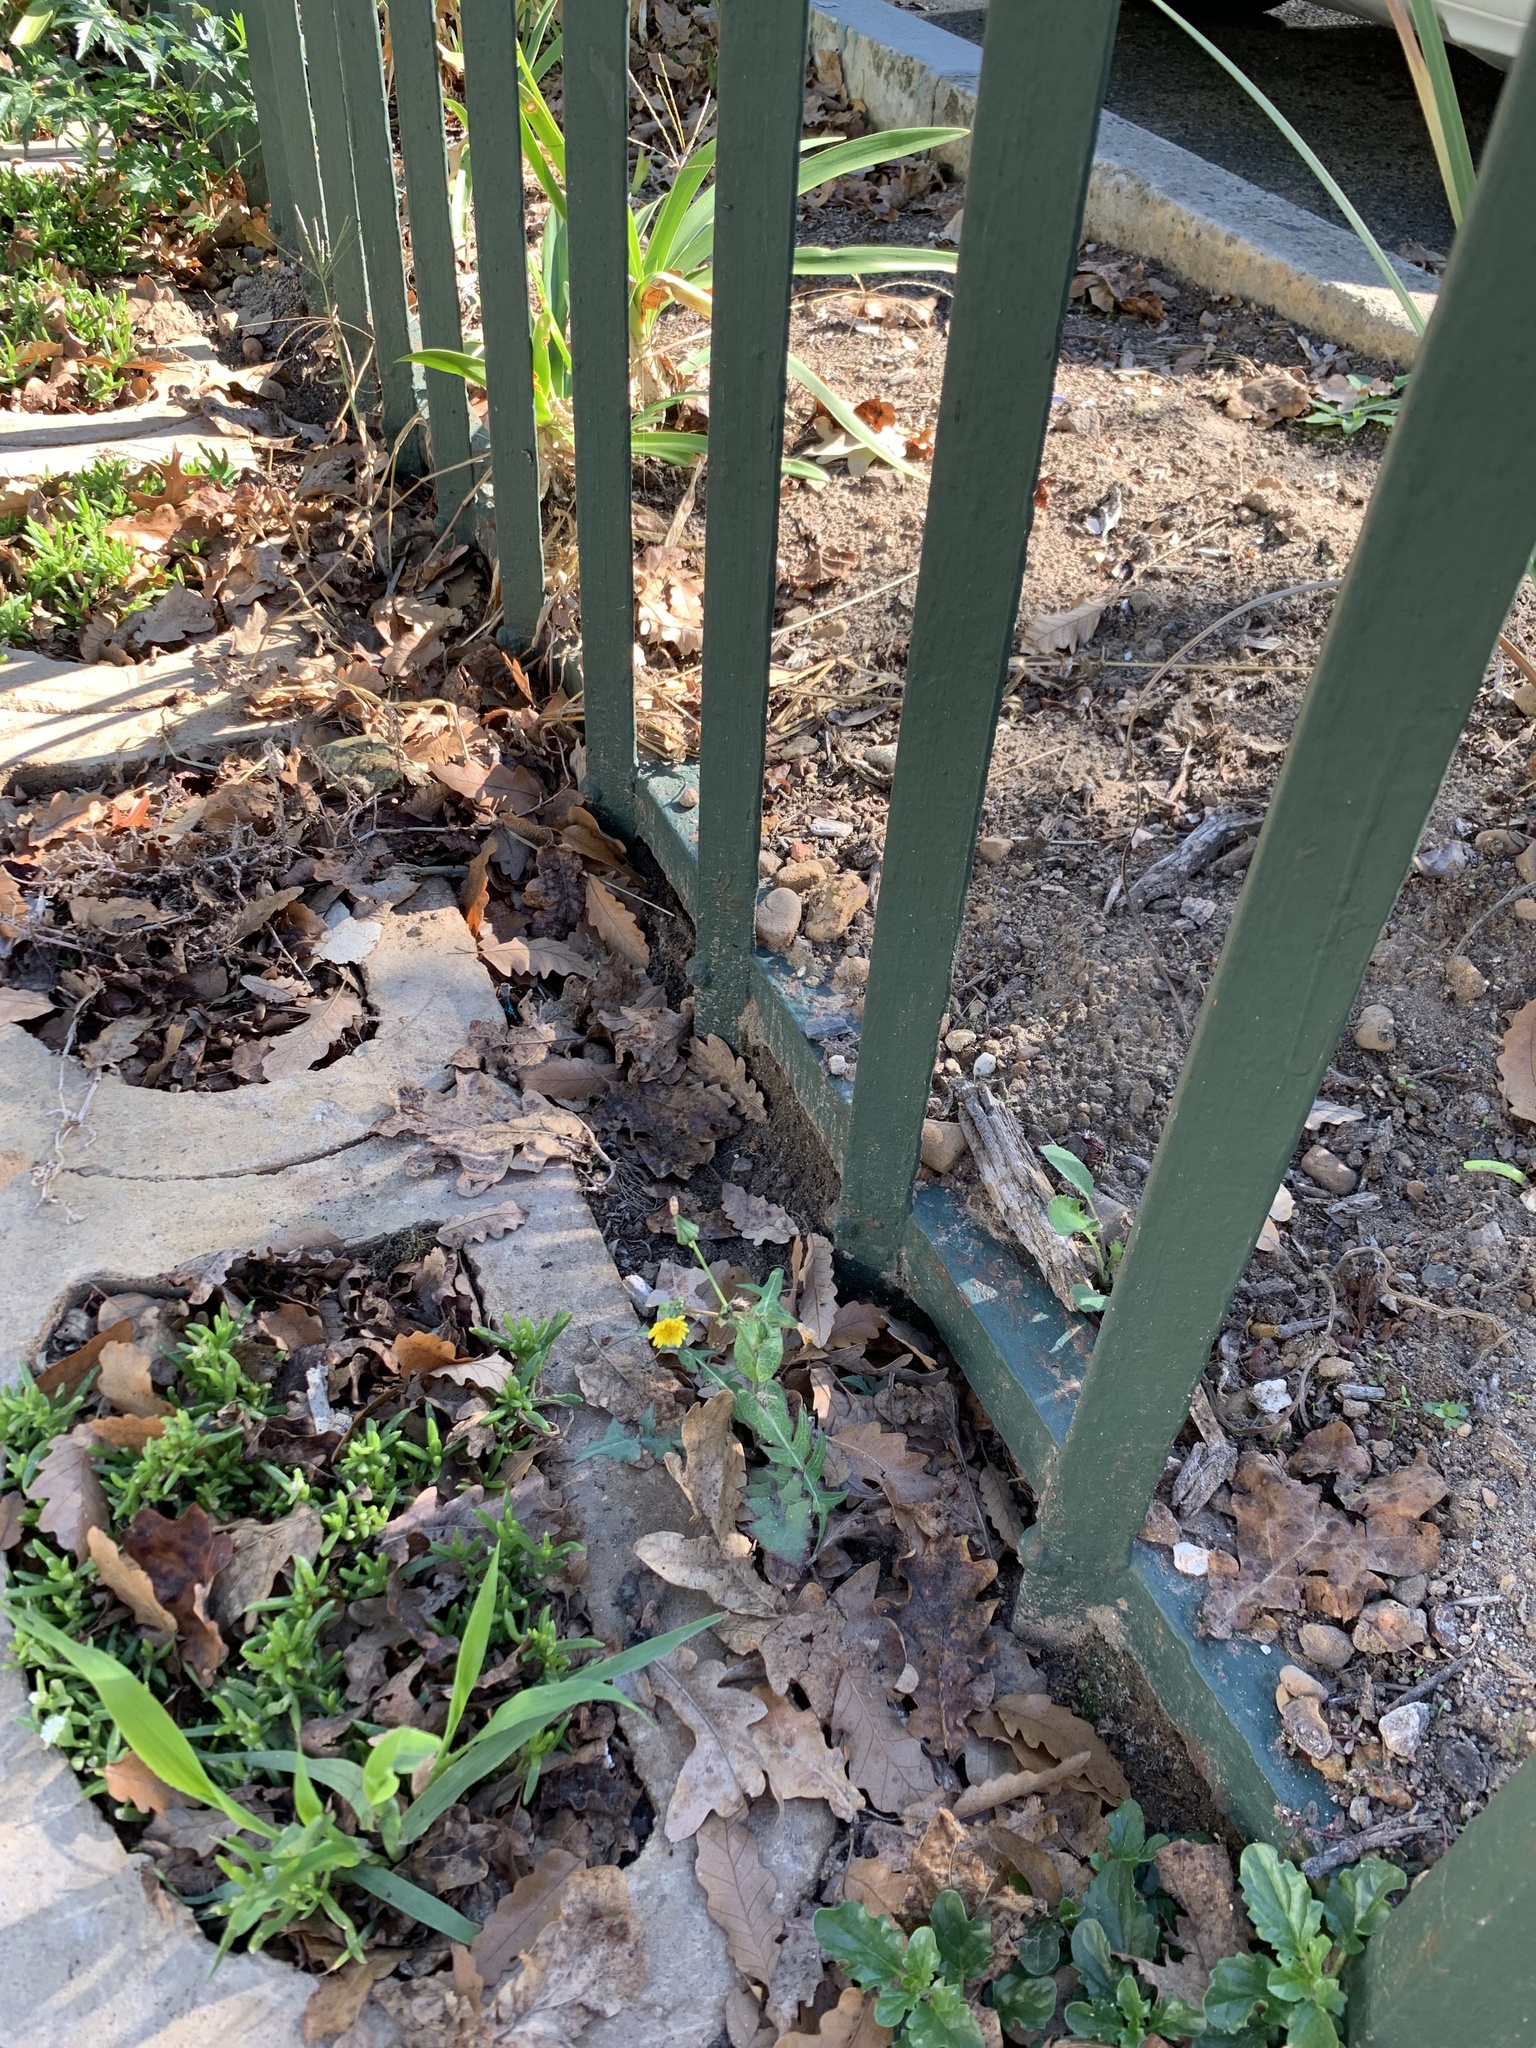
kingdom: Plantae
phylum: Tracheophyta
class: Magnoliopsida
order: Asterales
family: Asteraceae
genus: Sonchus
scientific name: Sonchus oleraceus
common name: Common sowthistle
